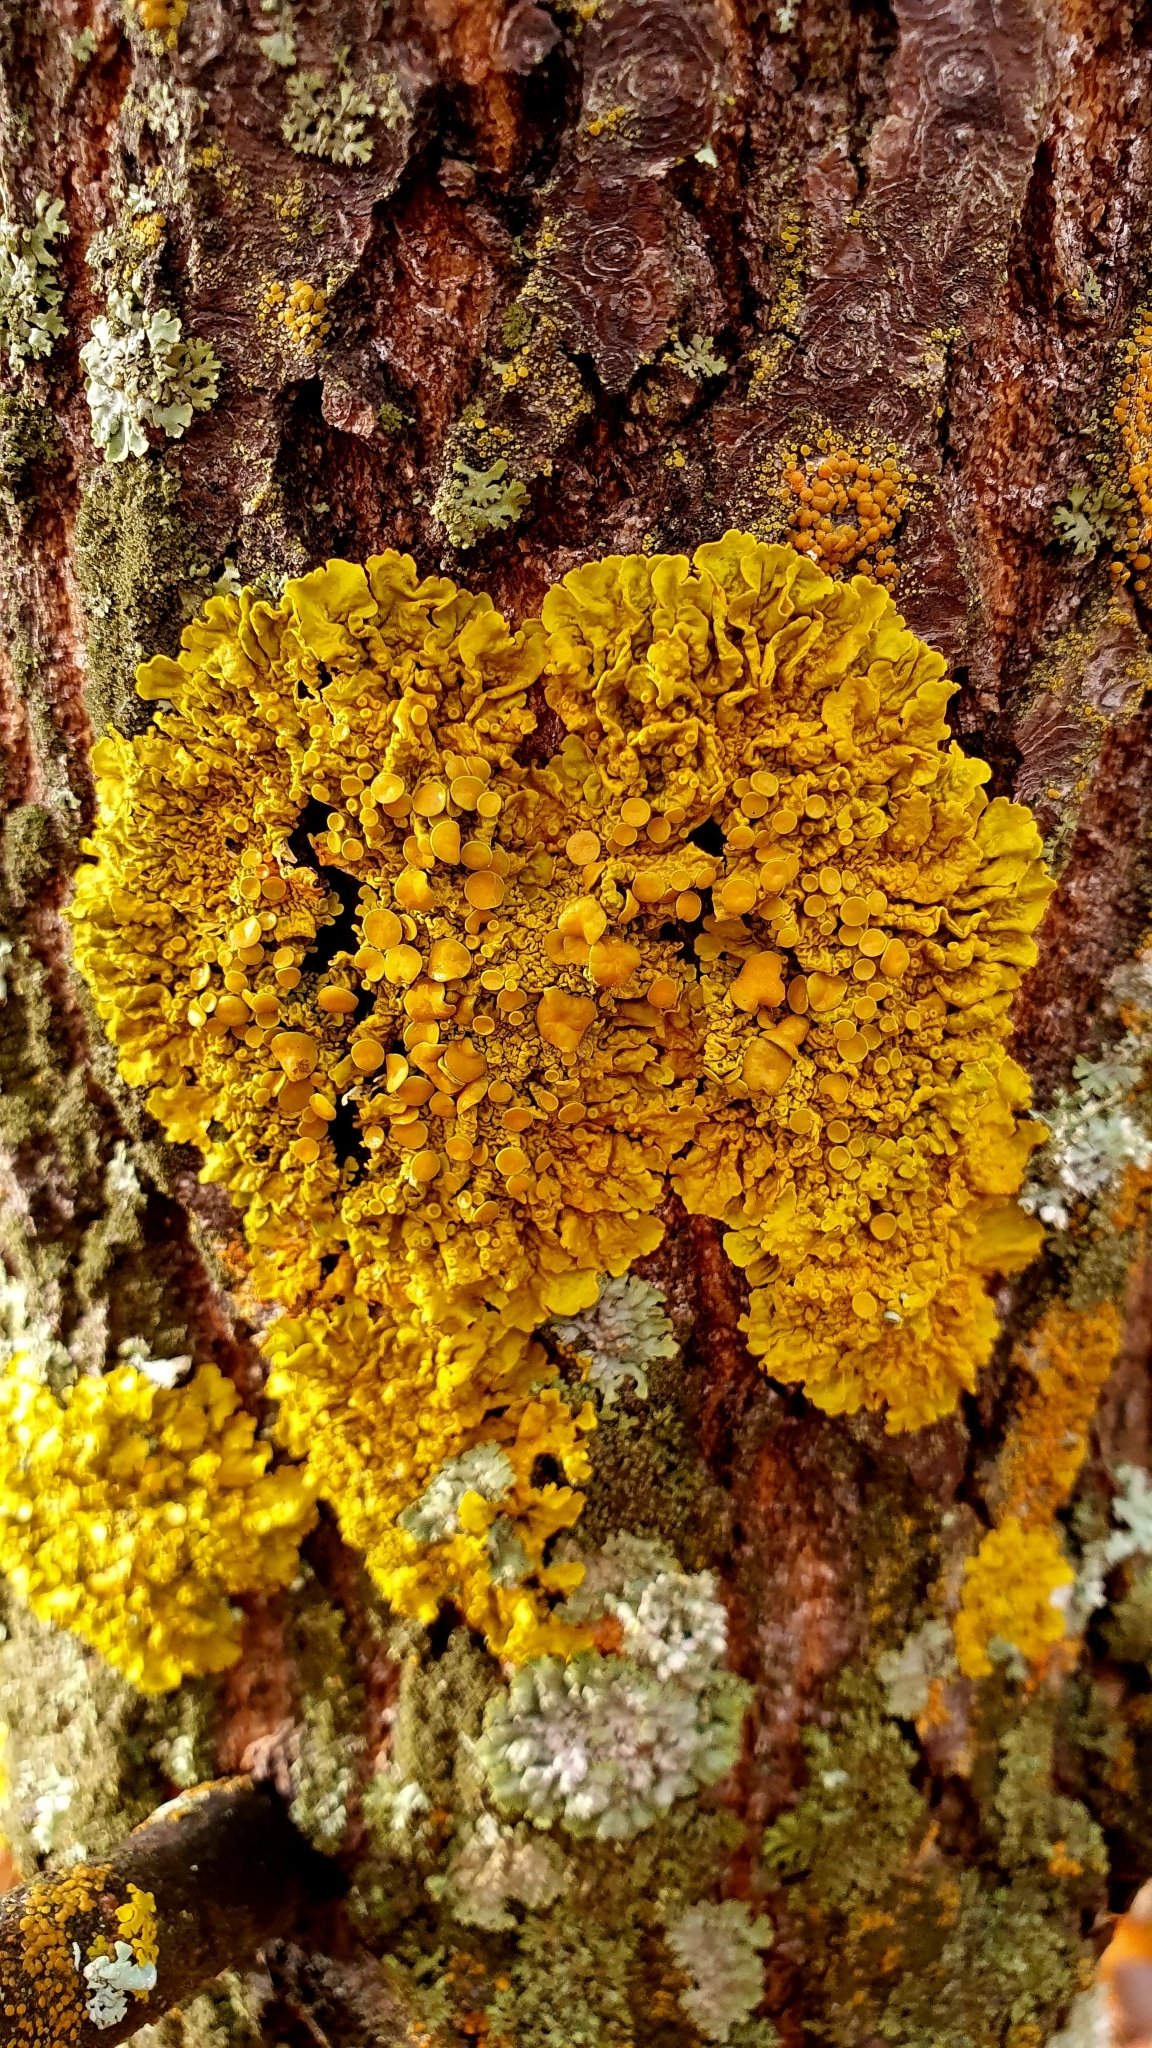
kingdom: Fungi
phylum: Ascomycota
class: Lecanoromycetes
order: Teloschistales
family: Teloschistaceae
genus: Xanthoria
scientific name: Xanthoria parietina
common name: Common orange lichen
